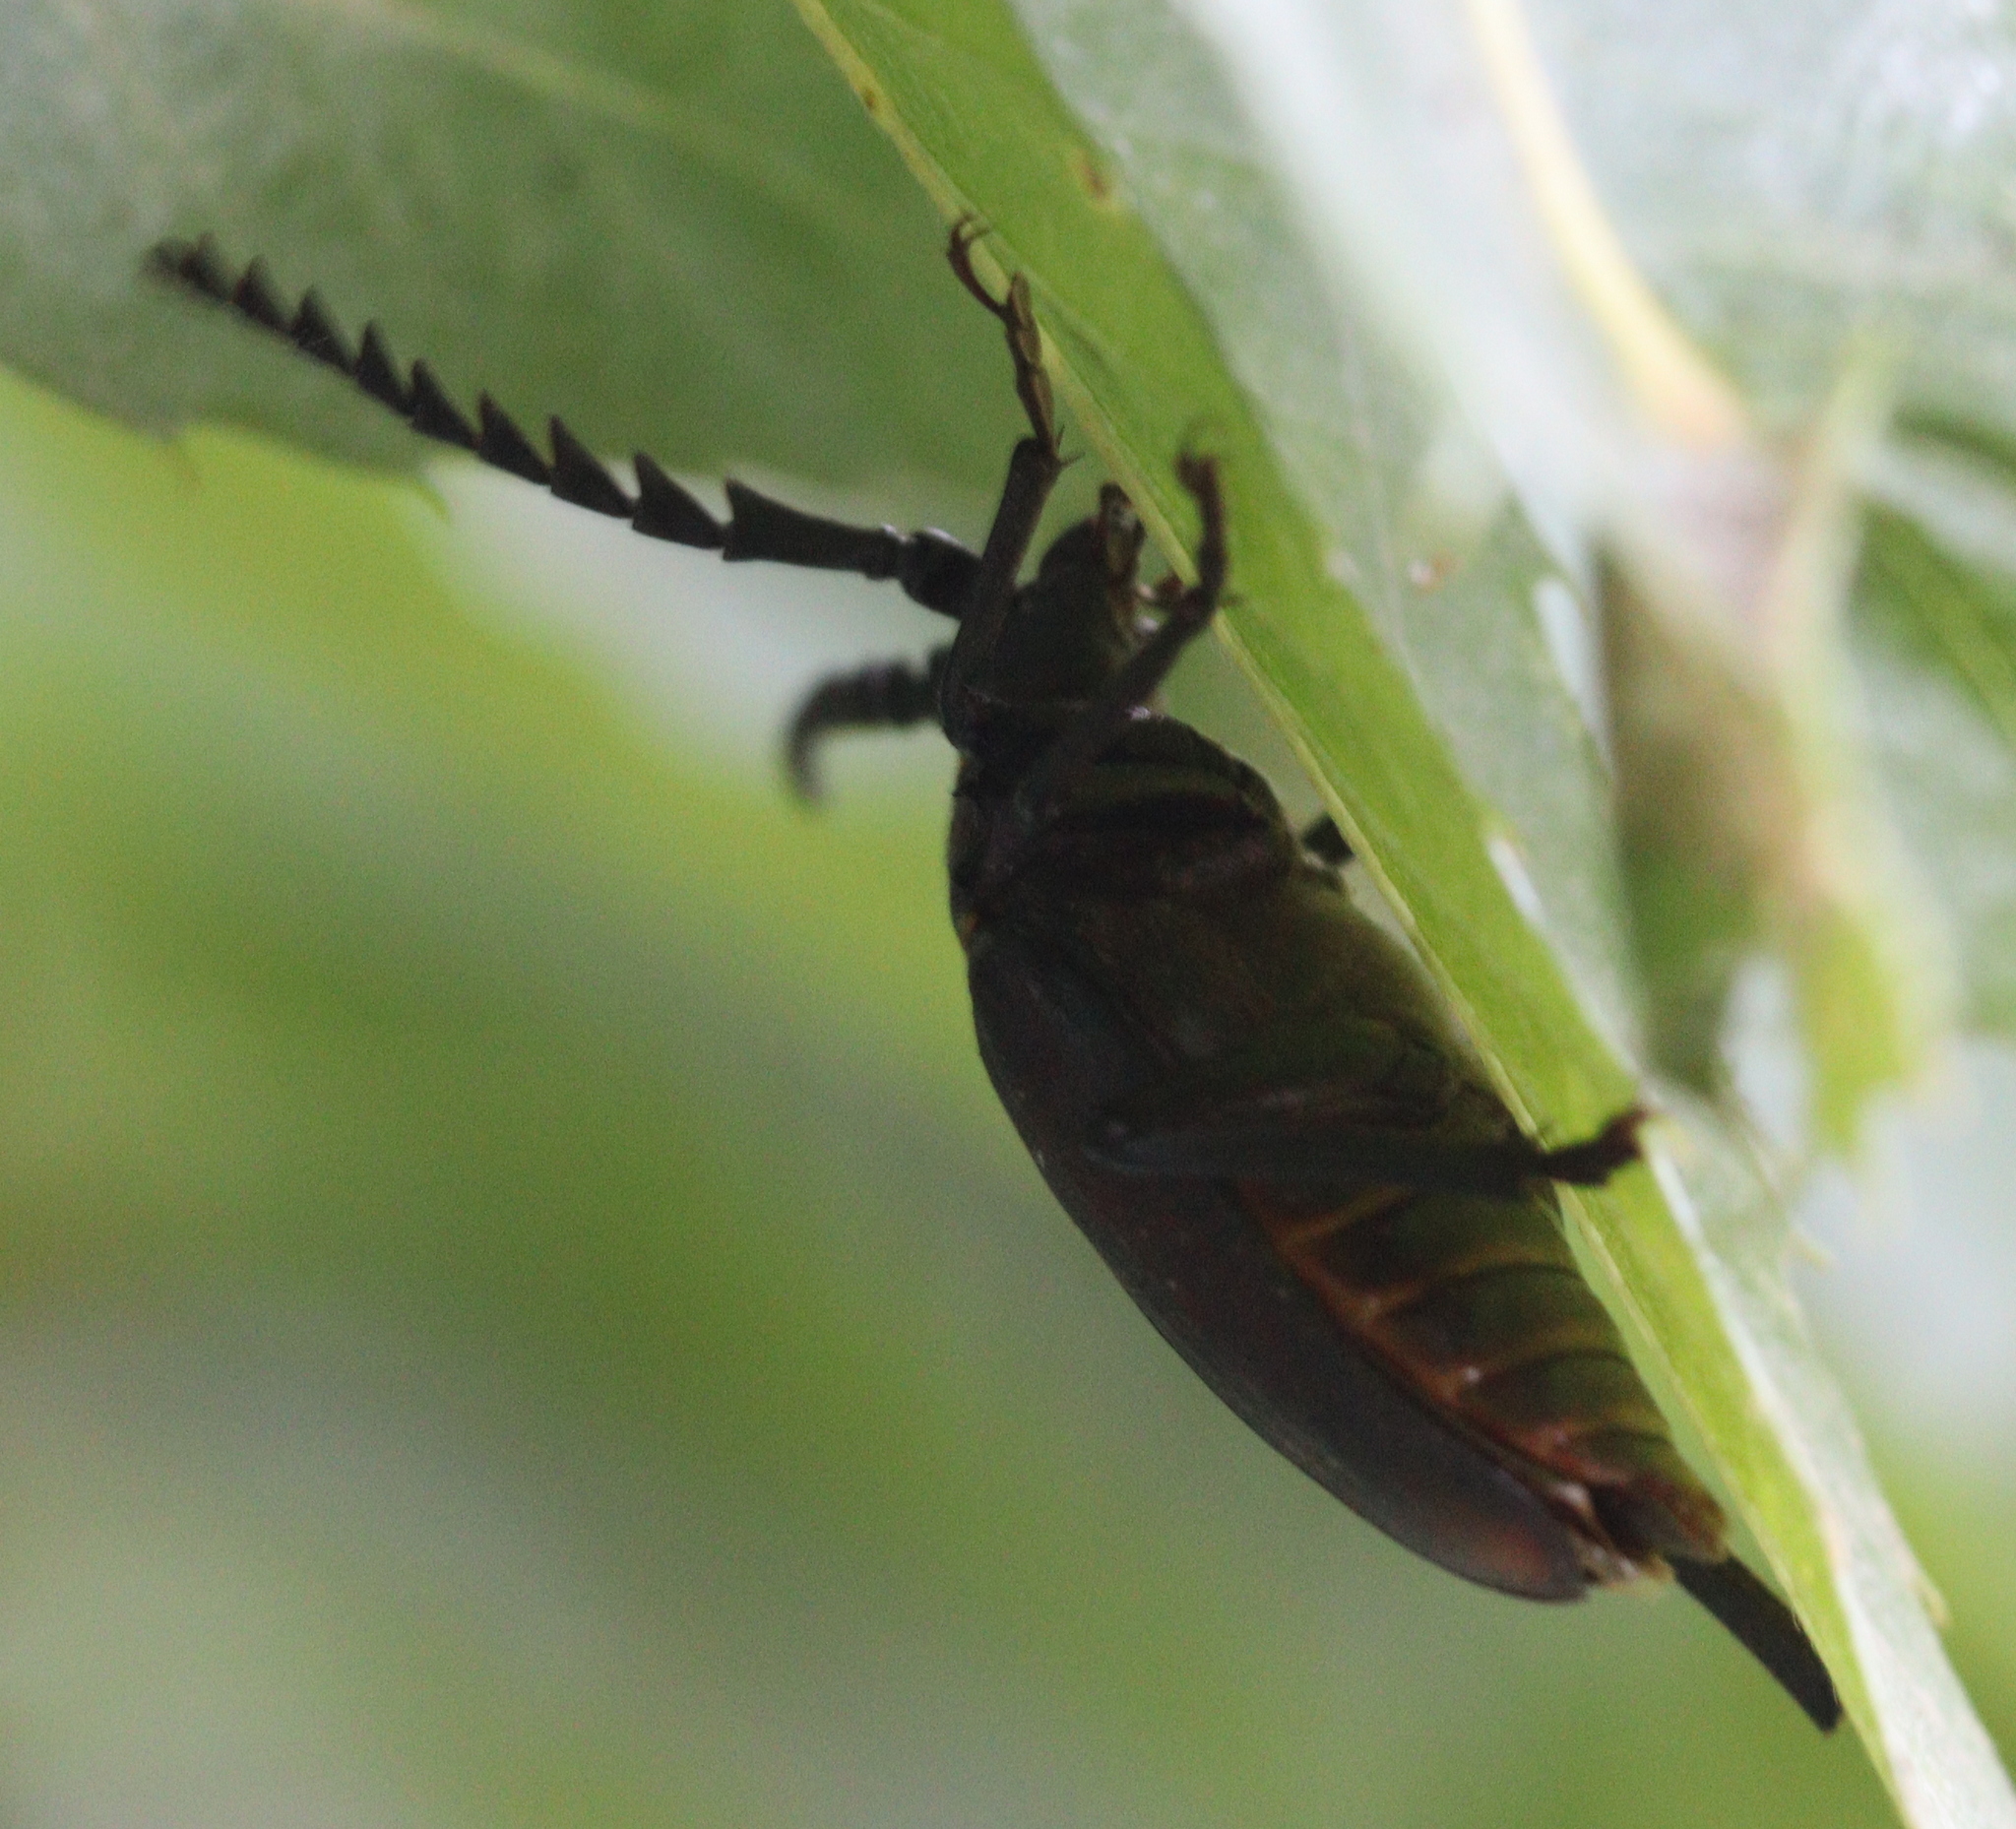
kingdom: Animalia
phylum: Arthropoda
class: Insecta
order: Coleoptera
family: Cerambycidae
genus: Prionus
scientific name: Prionus coriarius
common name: Tanner beetle
